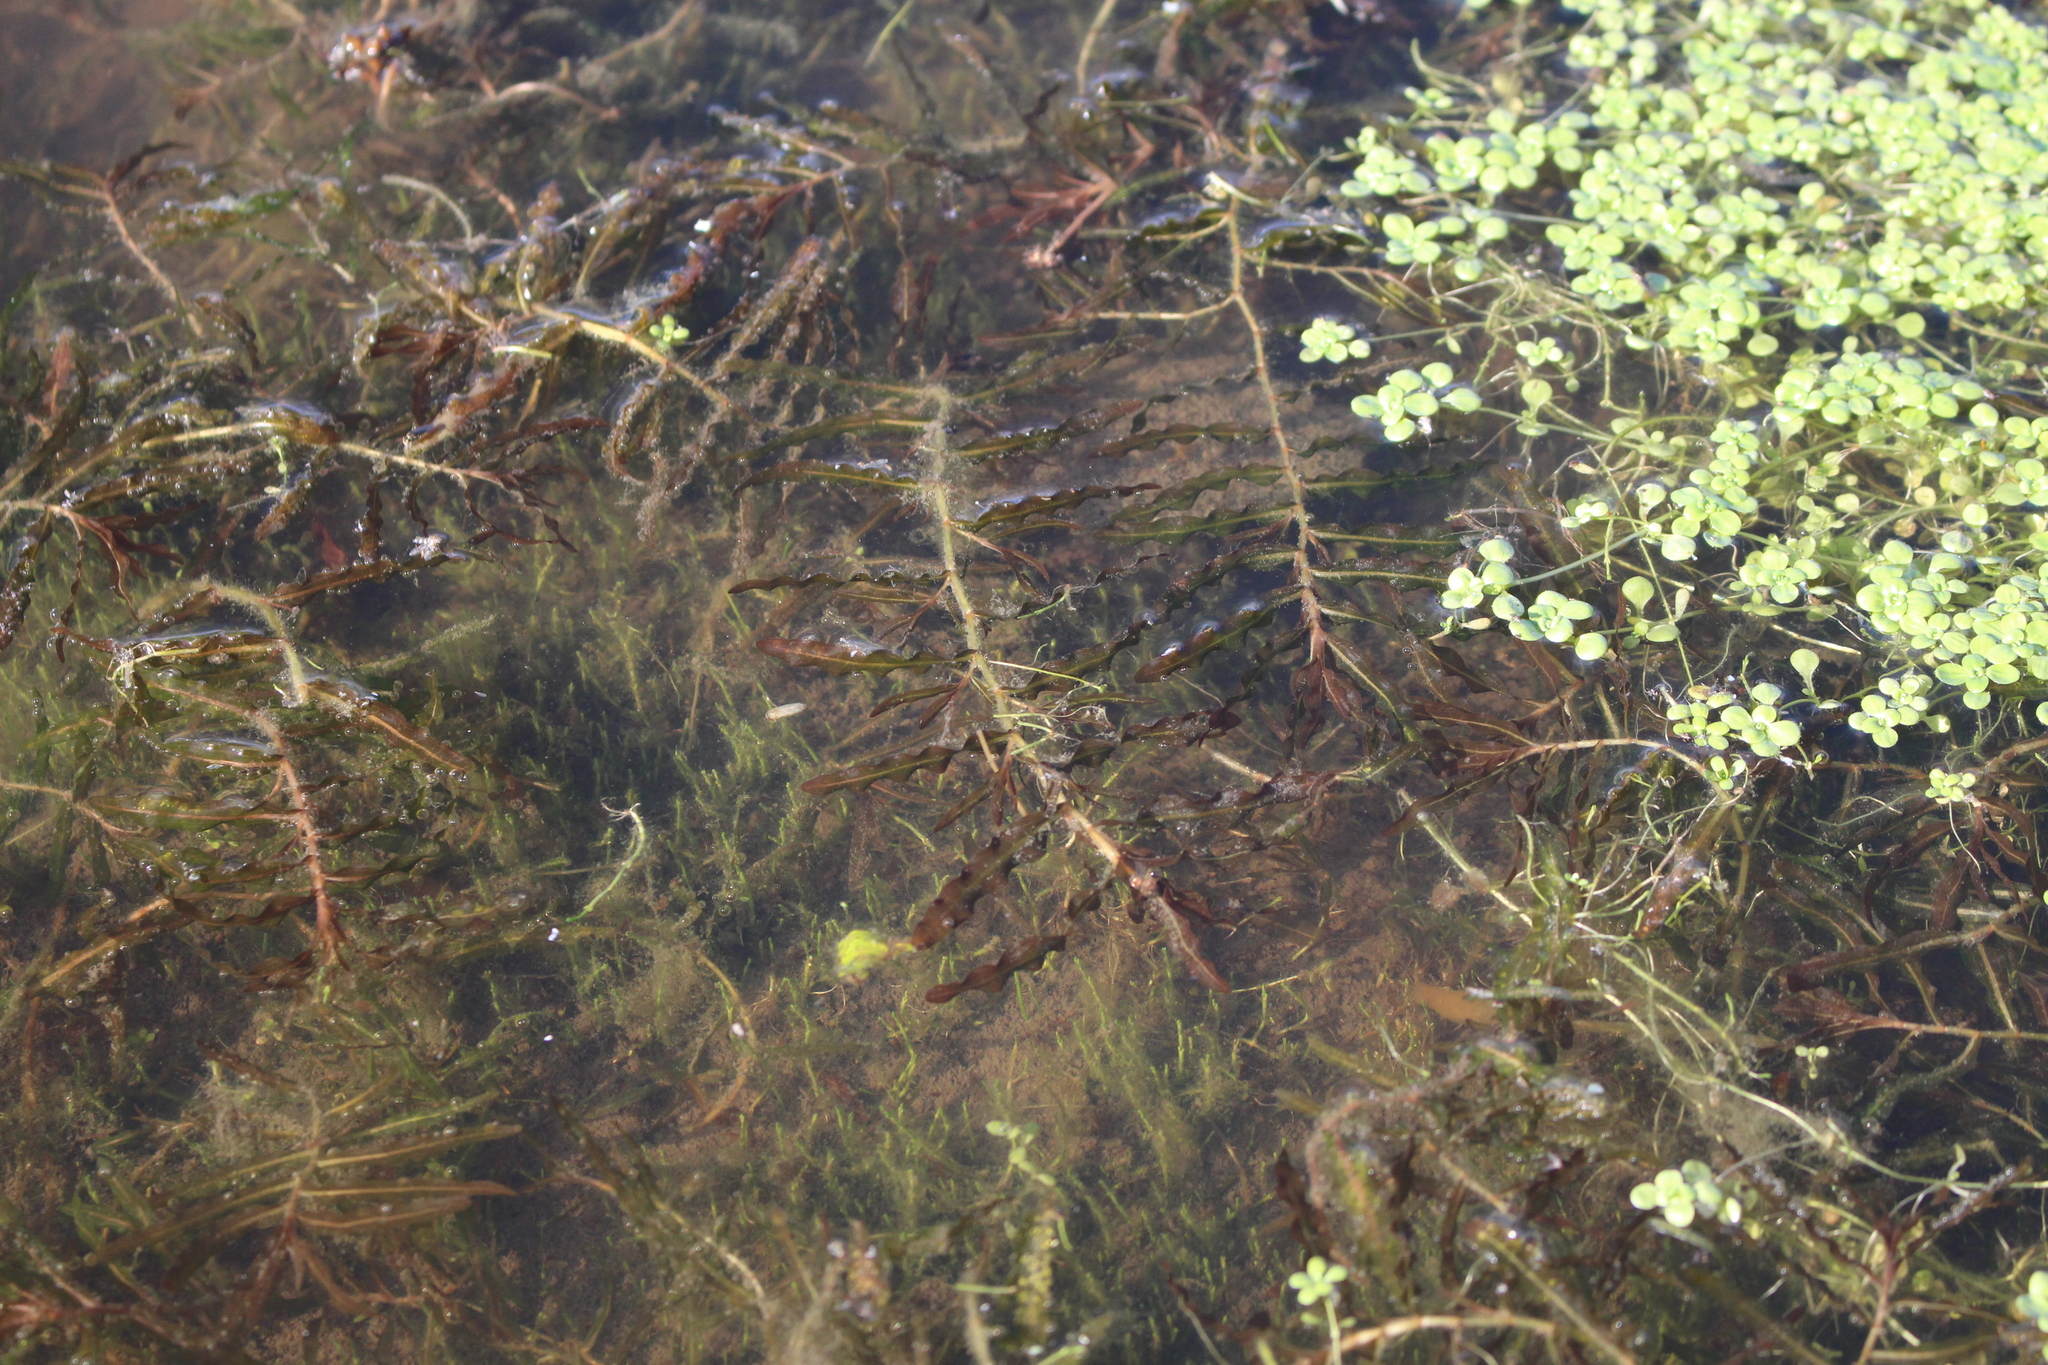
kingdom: Plantae
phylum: Tracheophyta
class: Liliopsida
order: Alismatales
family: Potamogetonaceae
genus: Potamogeton
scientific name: Potamogeton crispus
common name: Curled pondweed
